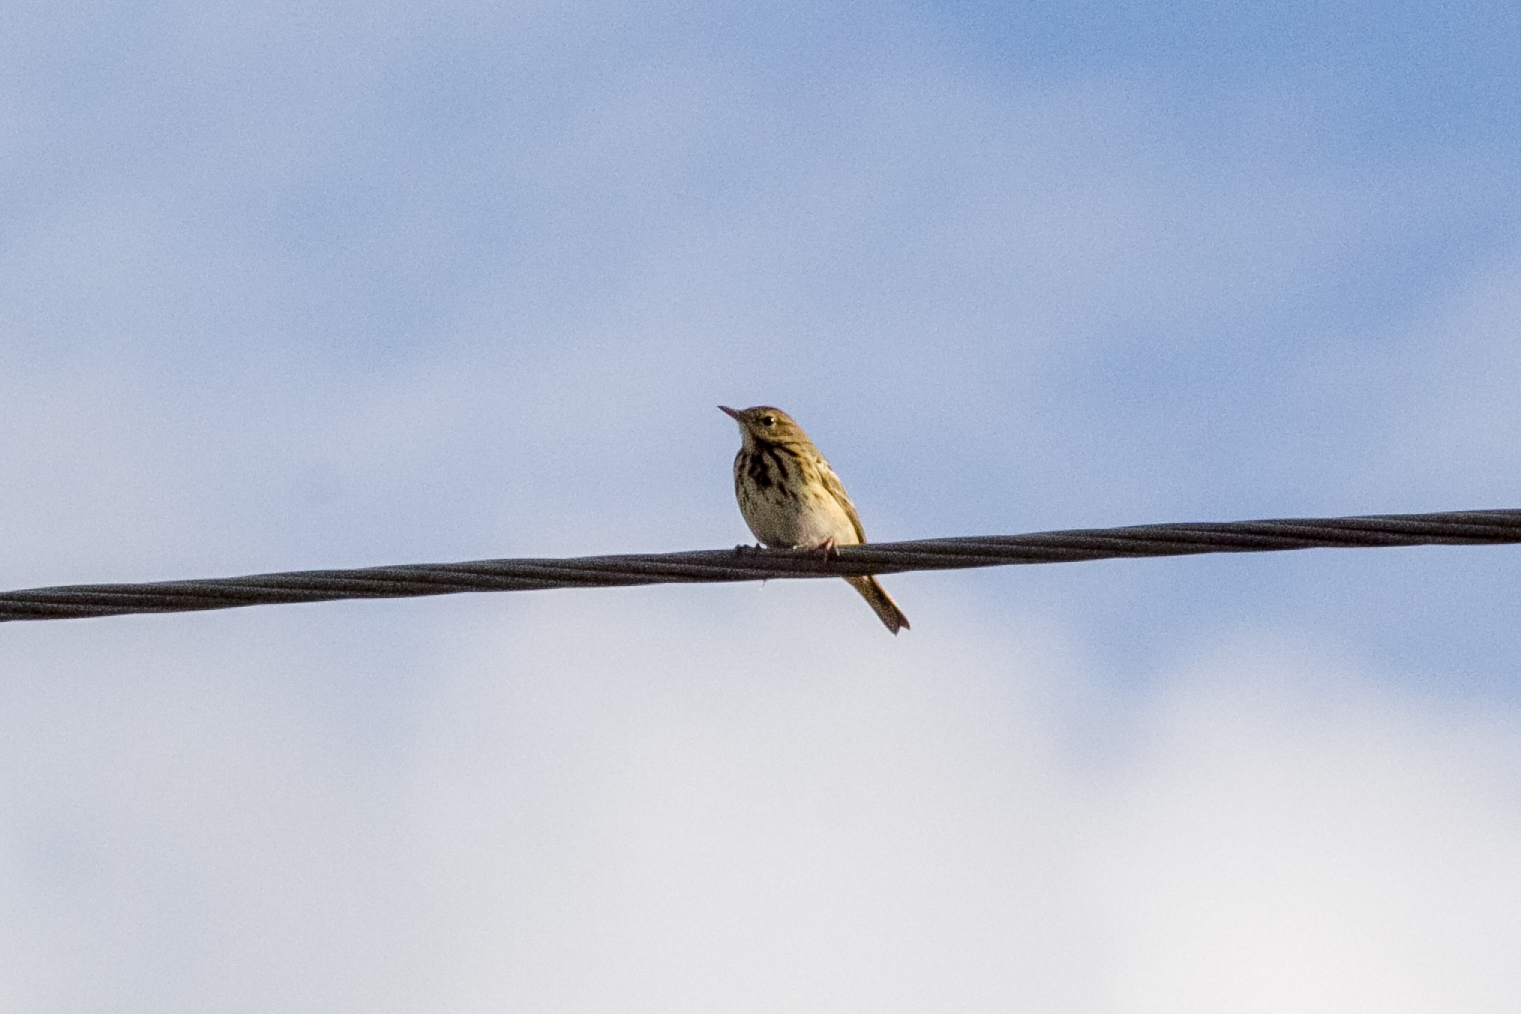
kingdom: Animalia
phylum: Chordata
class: Aves
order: Passeriformes
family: Motacillidae
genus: Anthus
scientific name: Anthus trivialis
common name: Tree pipit
